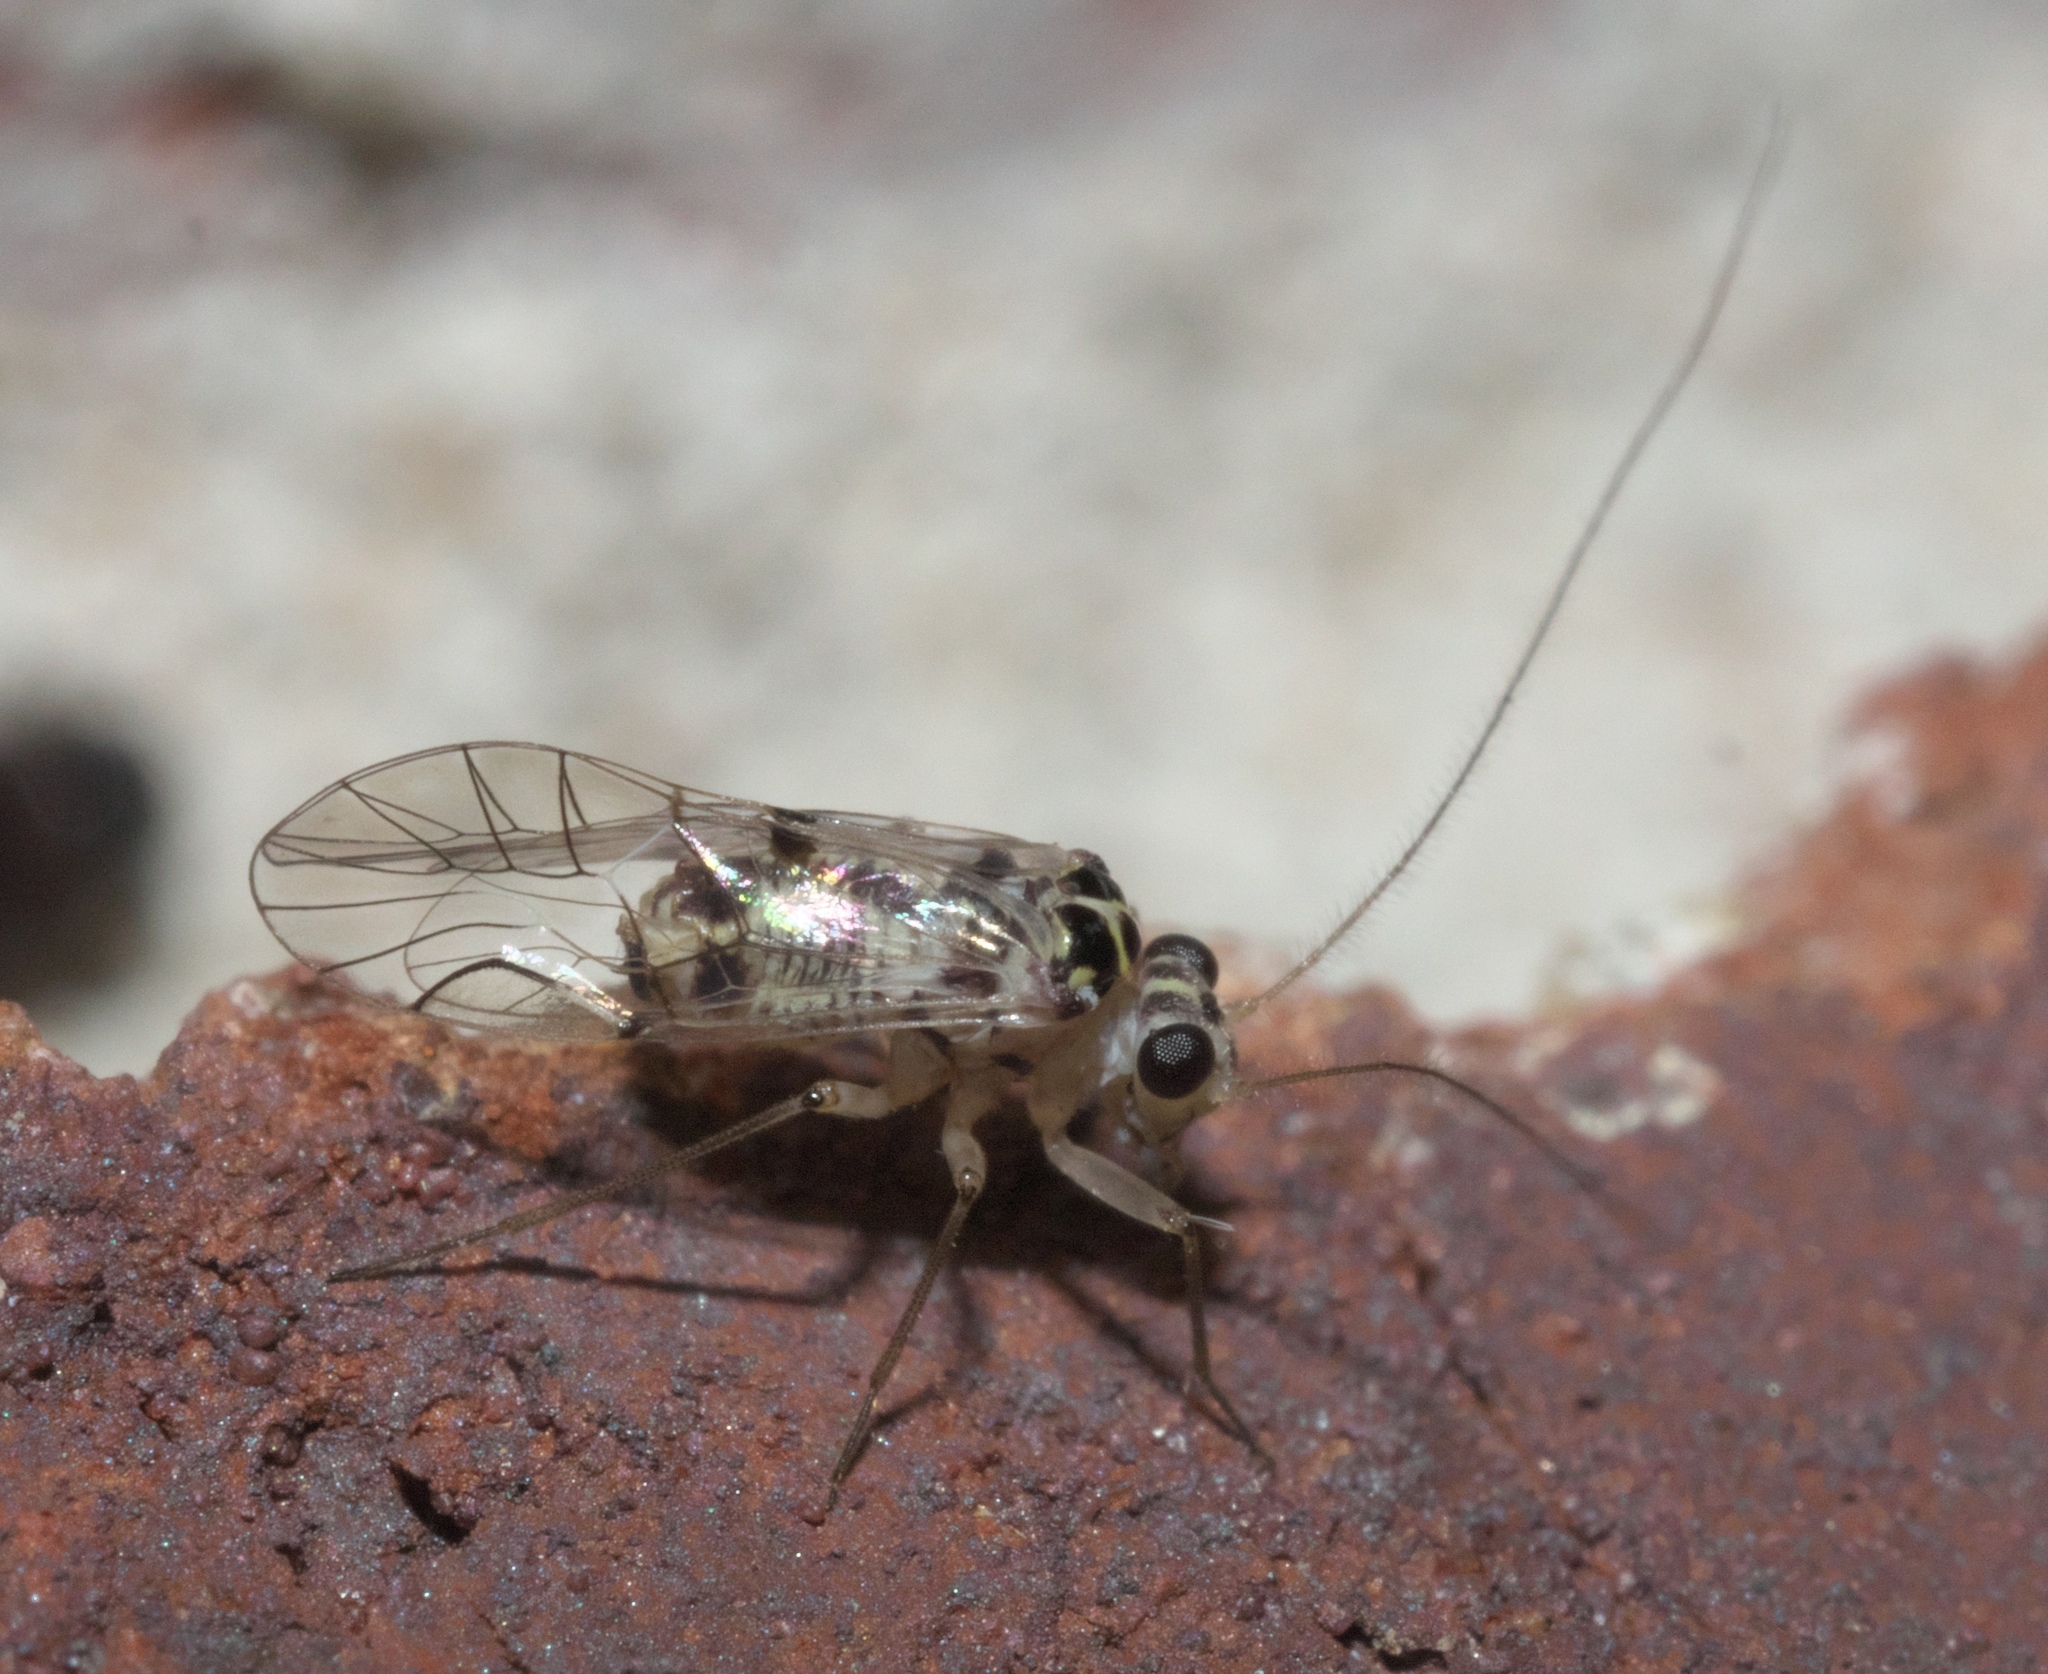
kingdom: Animalia
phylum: Arthropoda
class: Insecta
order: Psocodea
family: Psocidae
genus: Metylophorus
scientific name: Metylophorus purus
